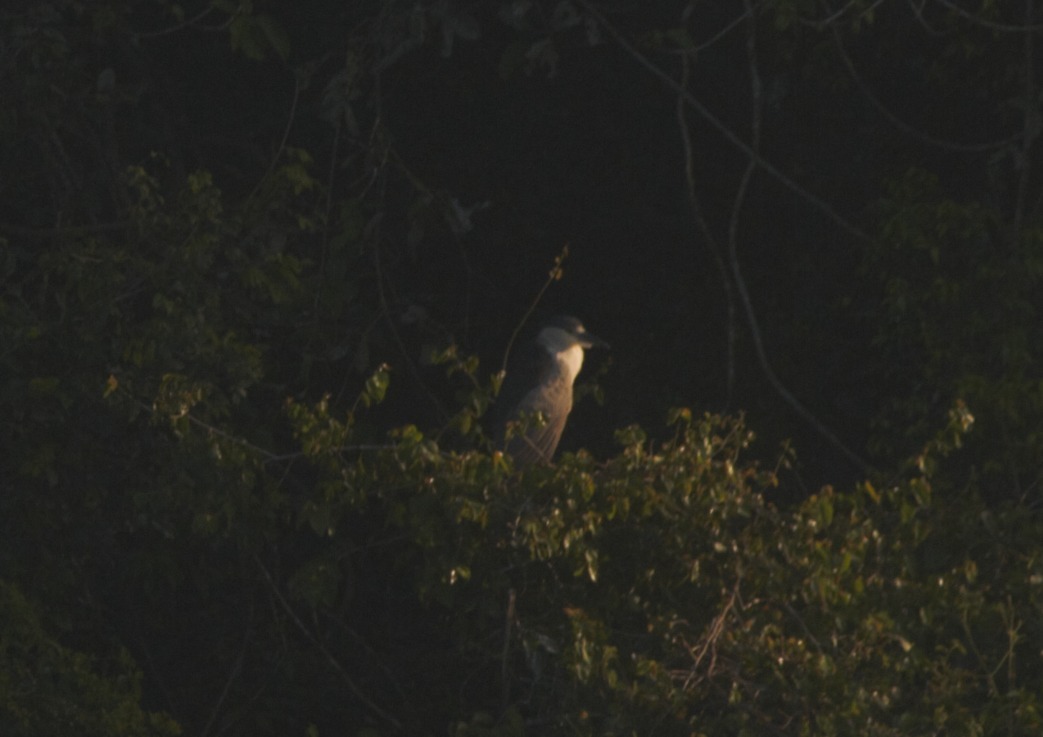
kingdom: Animalia
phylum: Chordata
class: Aves
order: Pelecaniformes
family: Ardeidae
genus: Nycticorax
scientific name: Nycticorax nycticorax
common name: Black-crowned night heron
